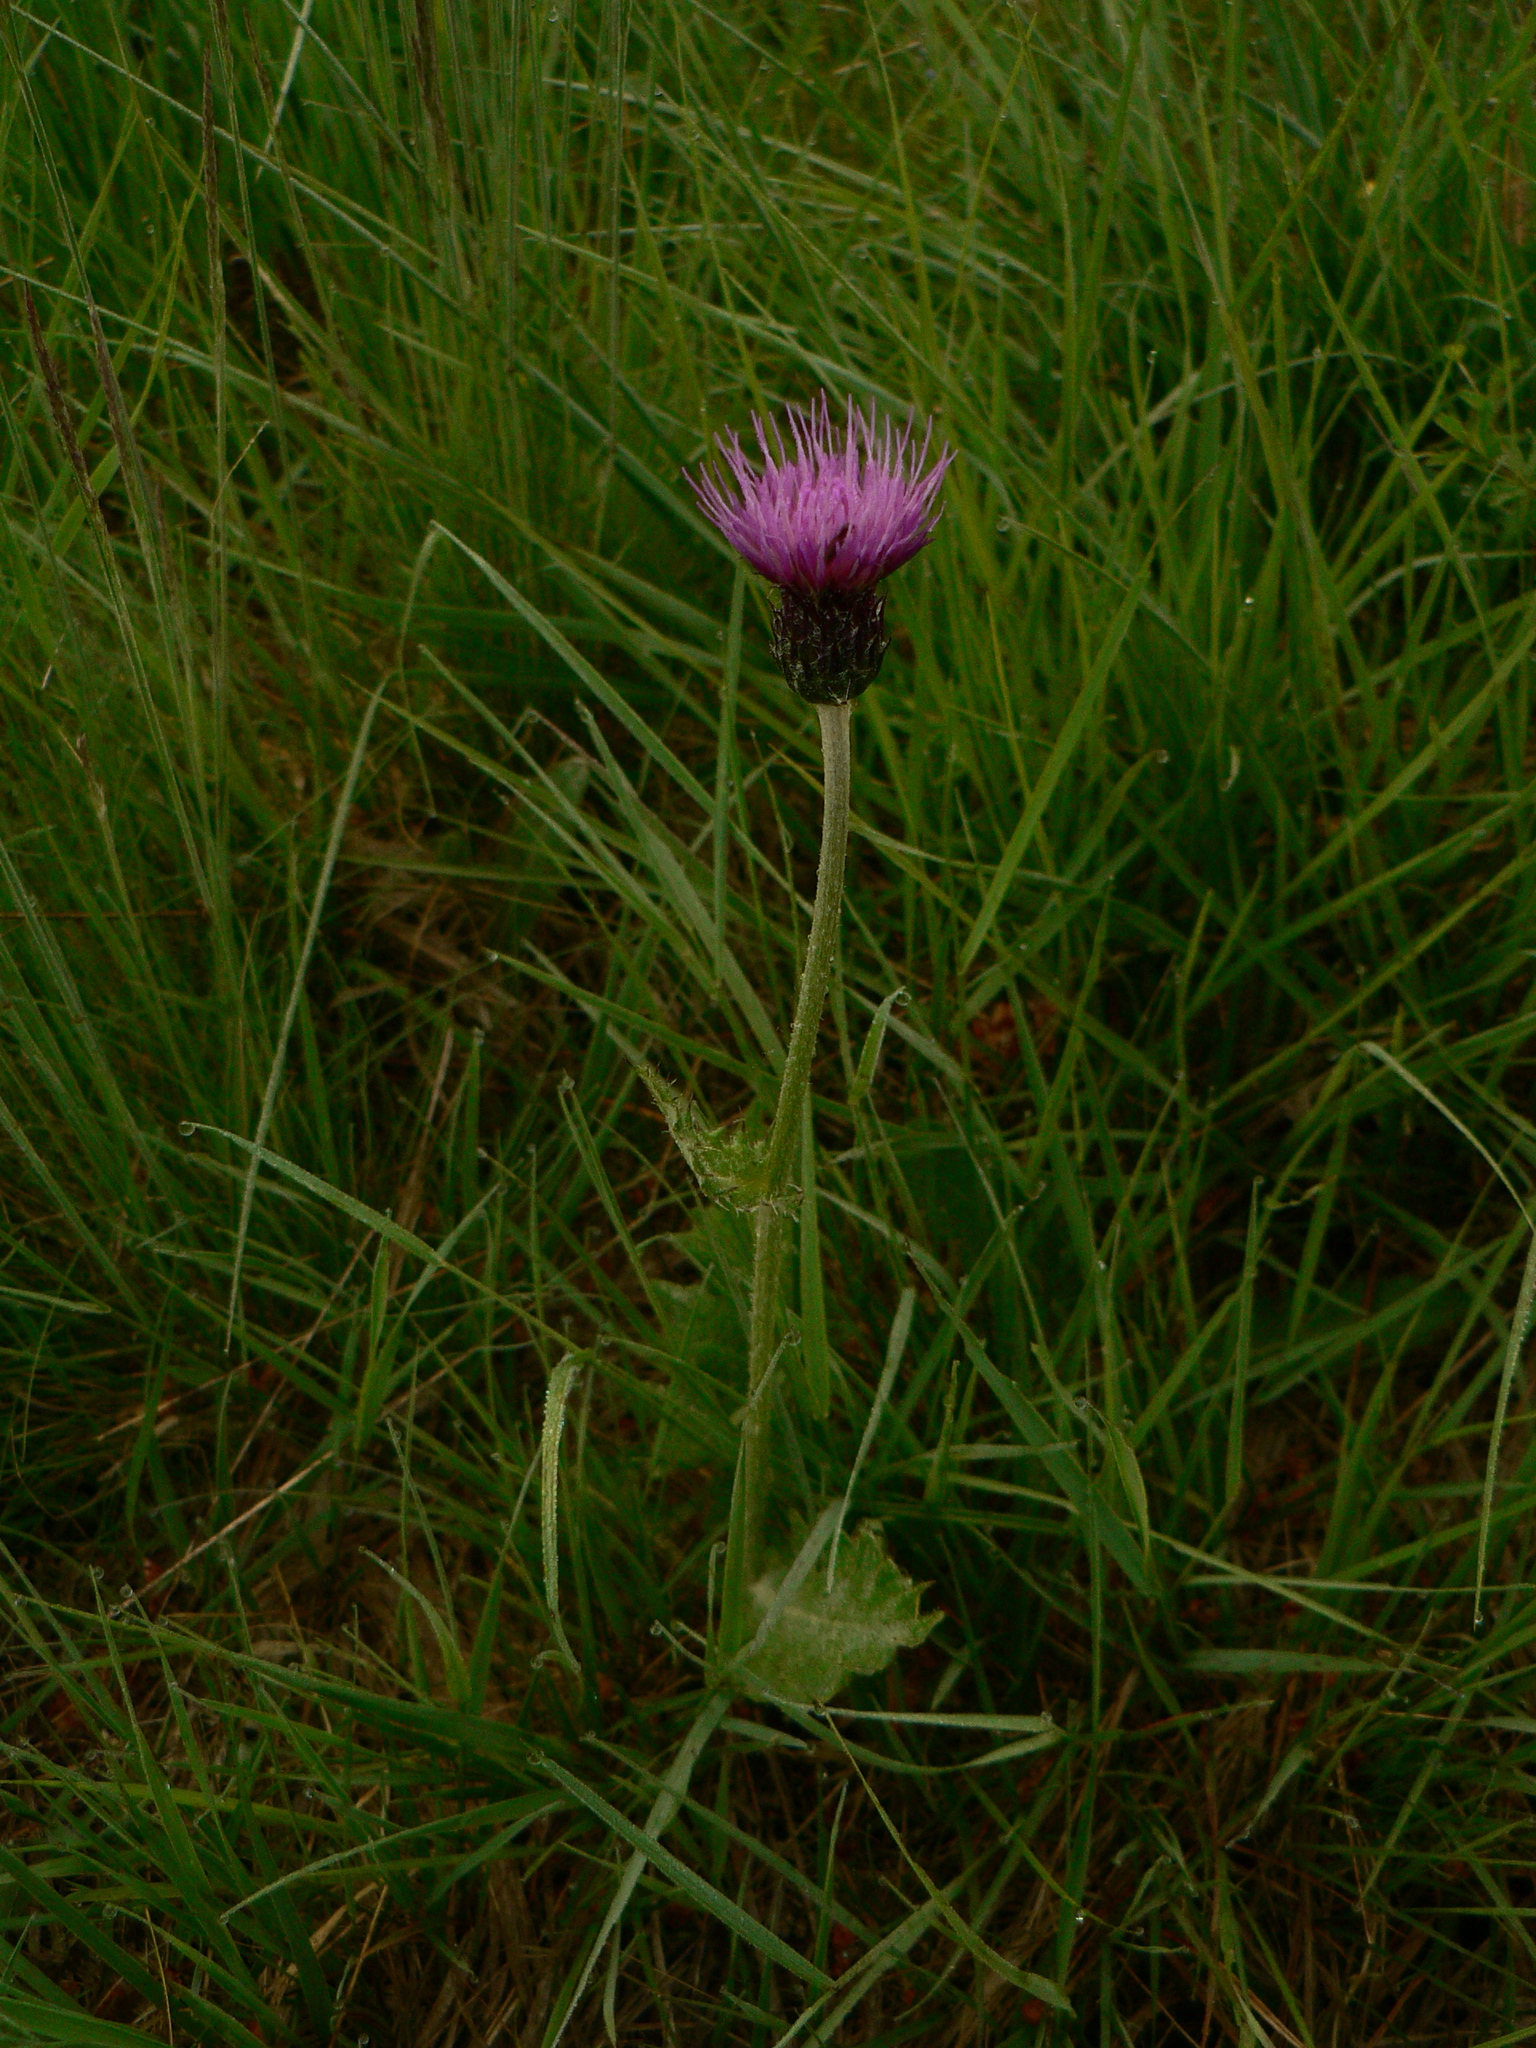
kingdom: Plantae
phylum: Tracheophyta
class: Magnoliopsida
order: Asterales
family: Asteraceae
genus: Cirsium
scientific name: Cirsium dissectum
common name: Meadow thistle
